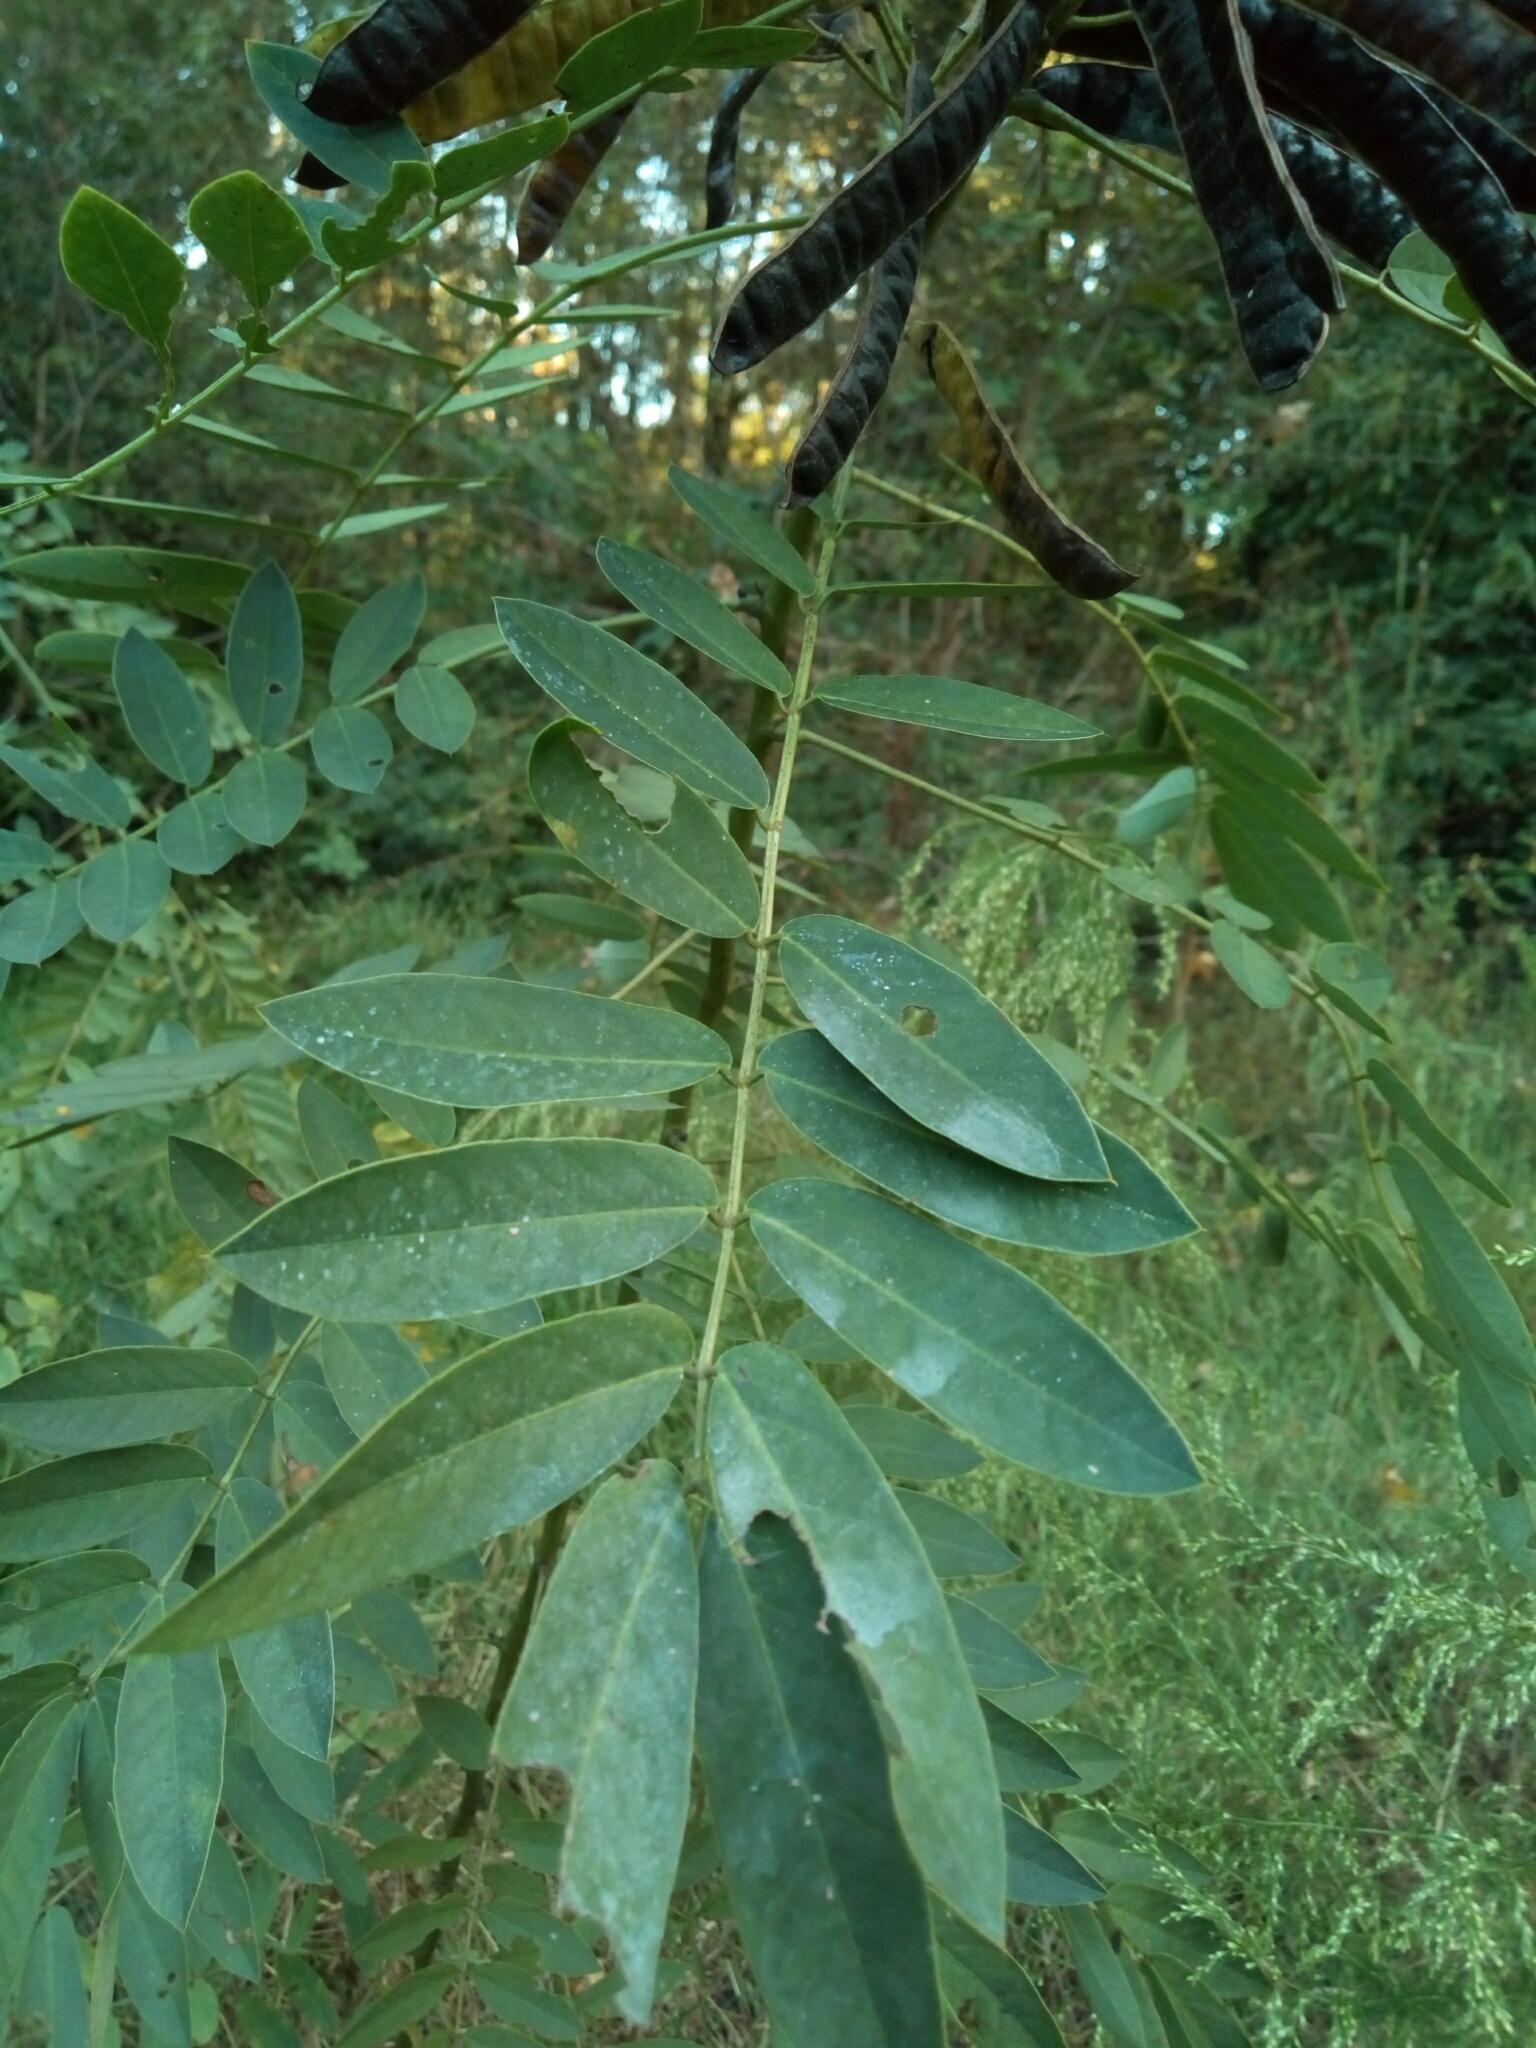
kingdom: Plantae
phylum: Tracheophyta
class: Magnoliopsida
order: Fabales
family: Fabaceae
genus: Senna
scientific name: Senna marilandica
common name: American senna
